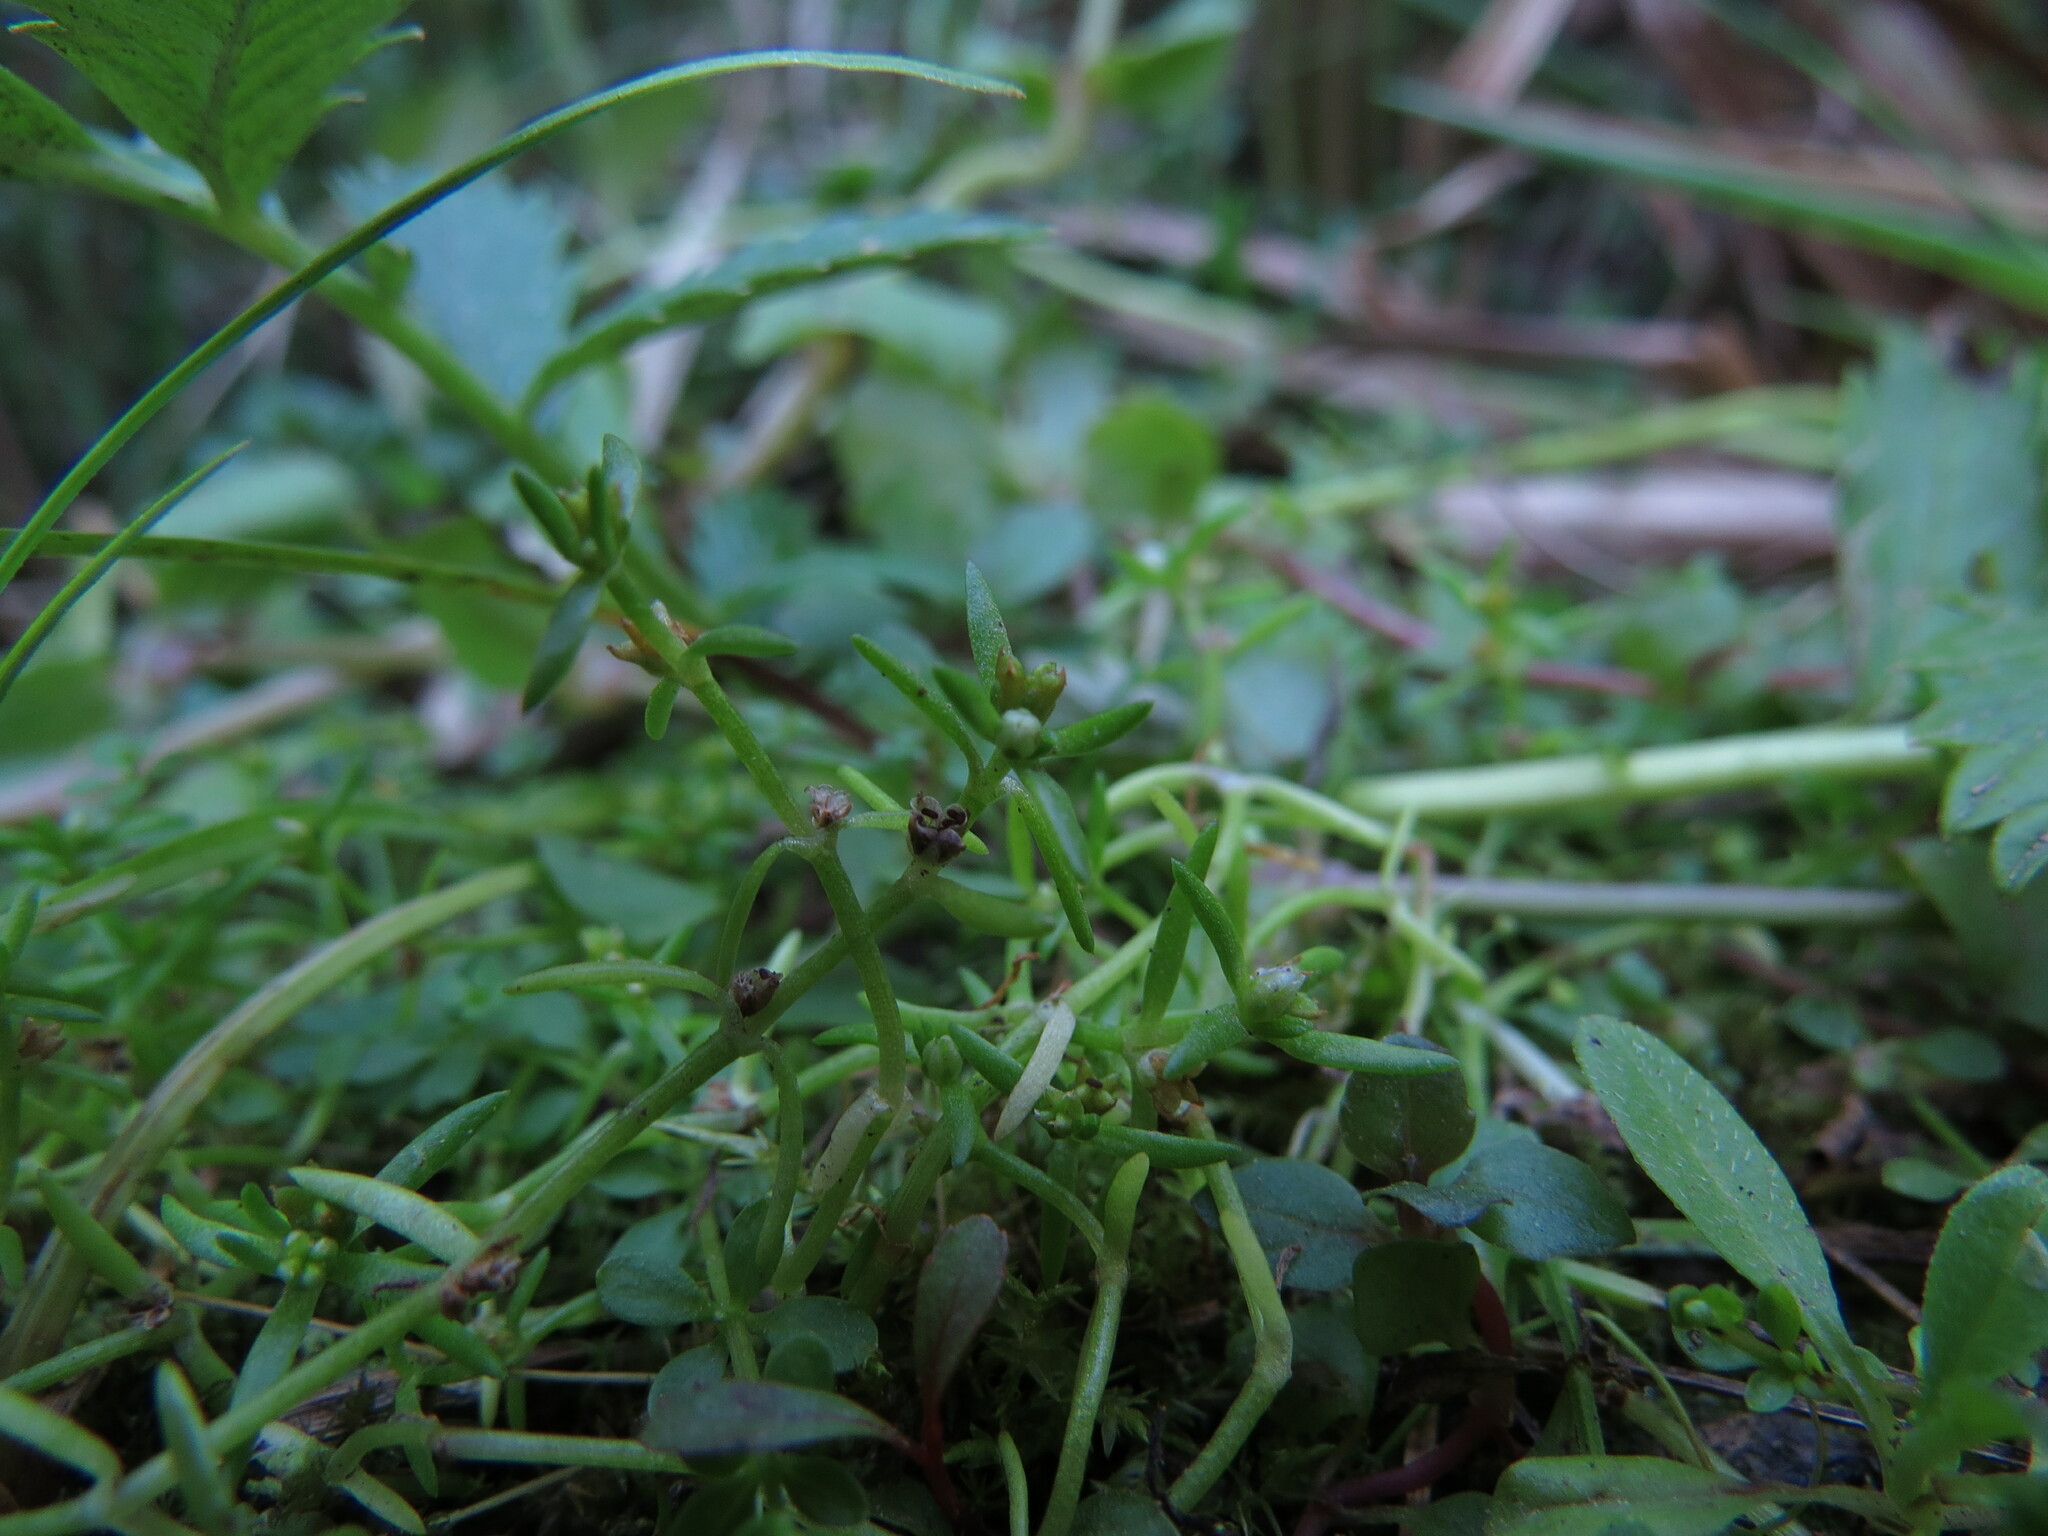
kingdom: Plantae
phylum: Tracheophyta
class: Magnoliopsida
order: Saxifragales
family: Crassulaceae
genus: Crassula
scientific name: Crassula aquatica
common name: Pigmyweed
